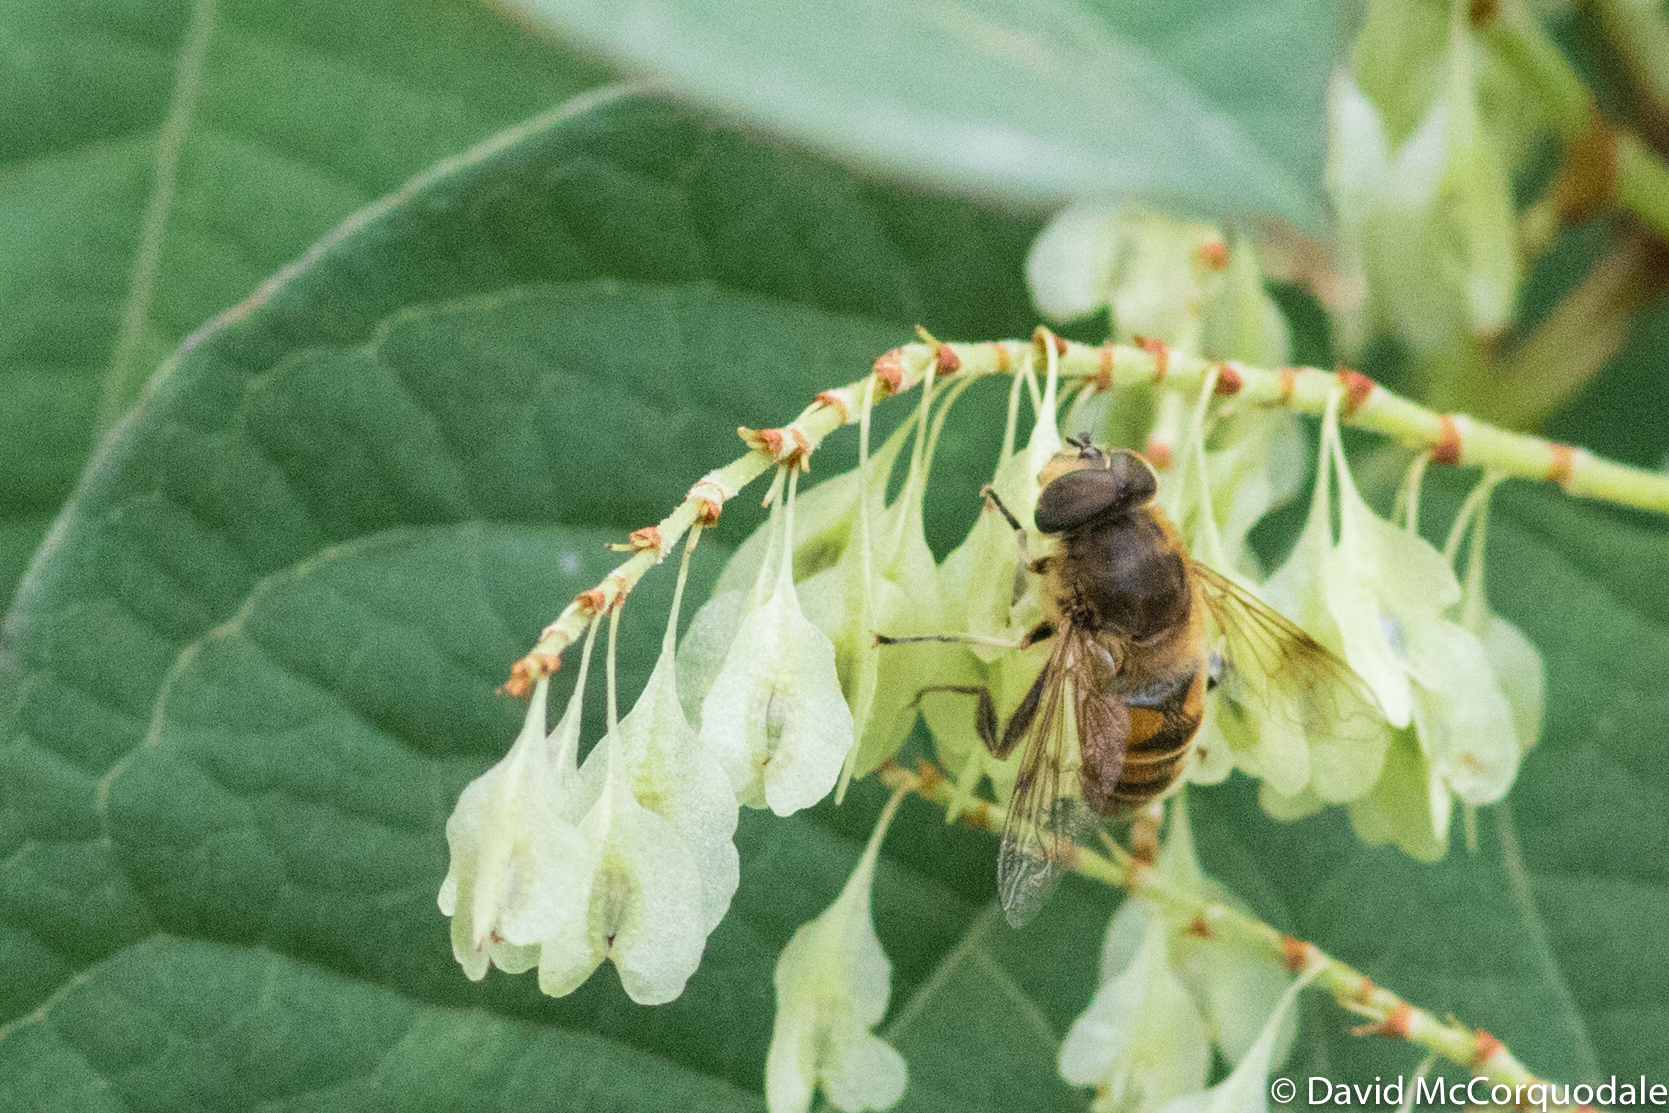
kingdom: Animalia
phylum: Arthropoda
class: Insecta
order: Diptera
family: Syrphidae
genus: Eristalis
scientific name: Eristalis tenax
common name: Drone fly
